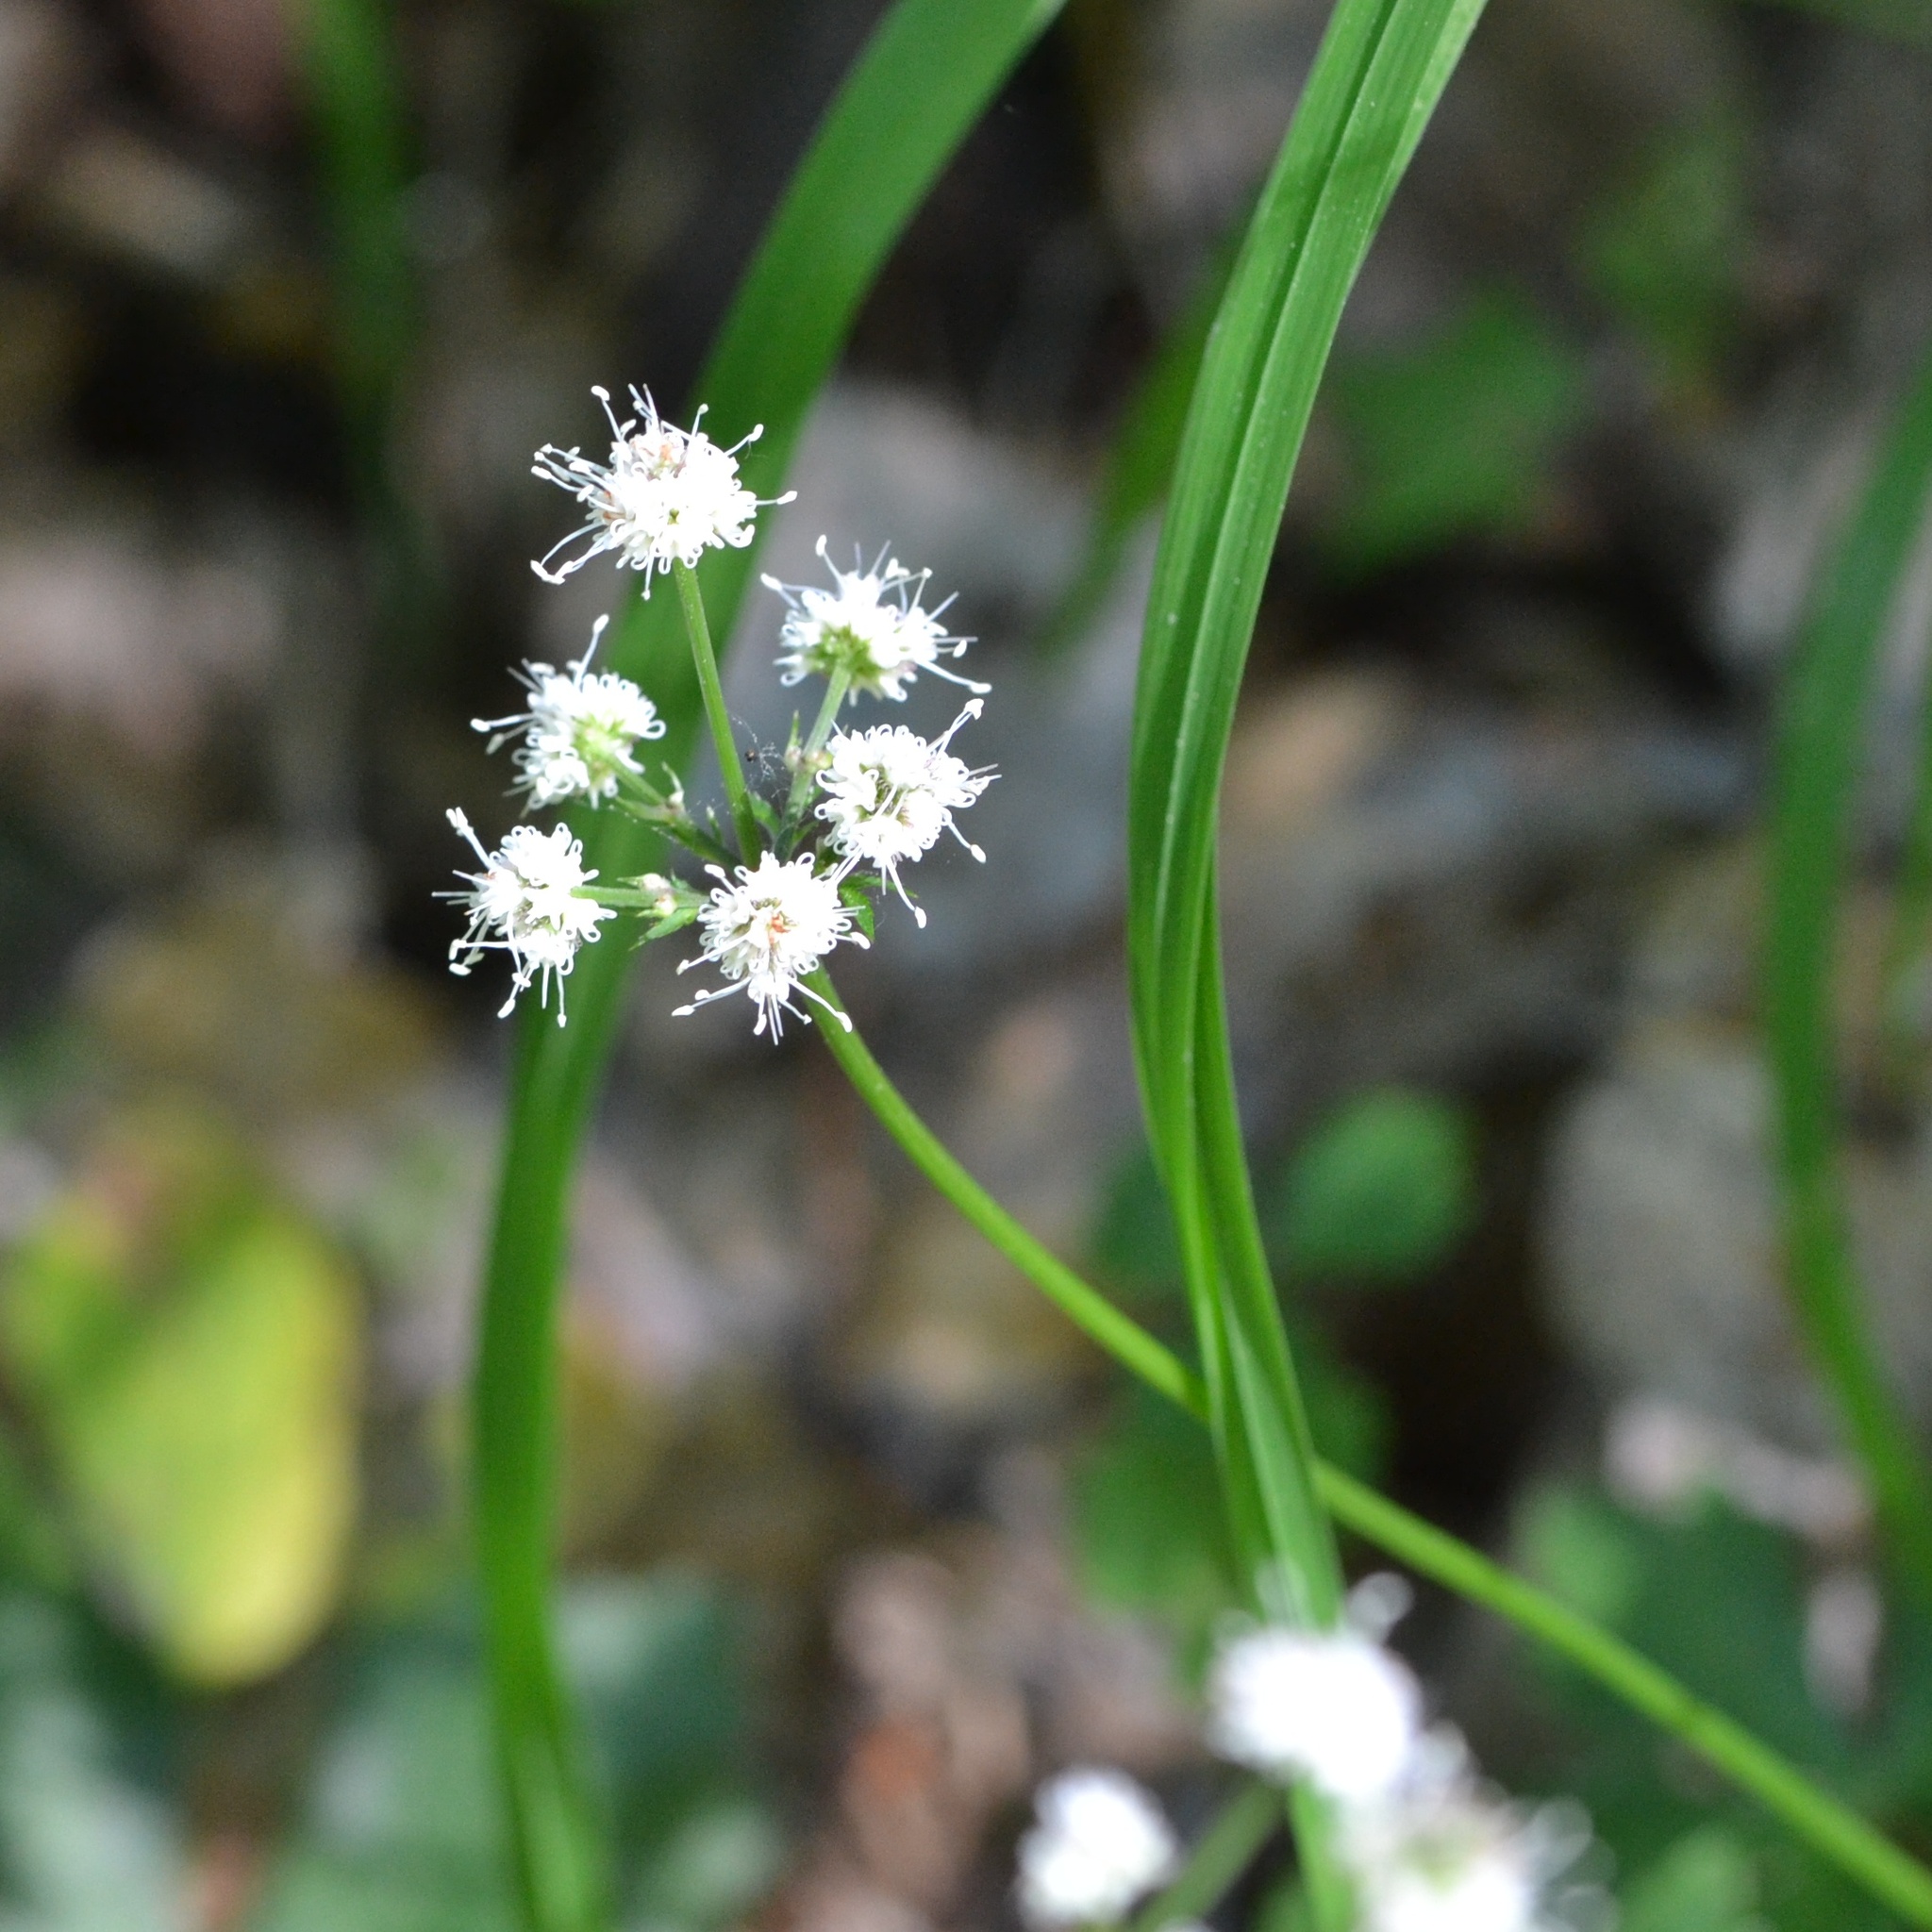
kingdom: Plantae
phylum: Tracheophyta
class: Magnoliopsida
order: Apiales
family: Apiaceae
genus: Sanicula
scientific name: Sanicula europaea
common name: Sanicle
